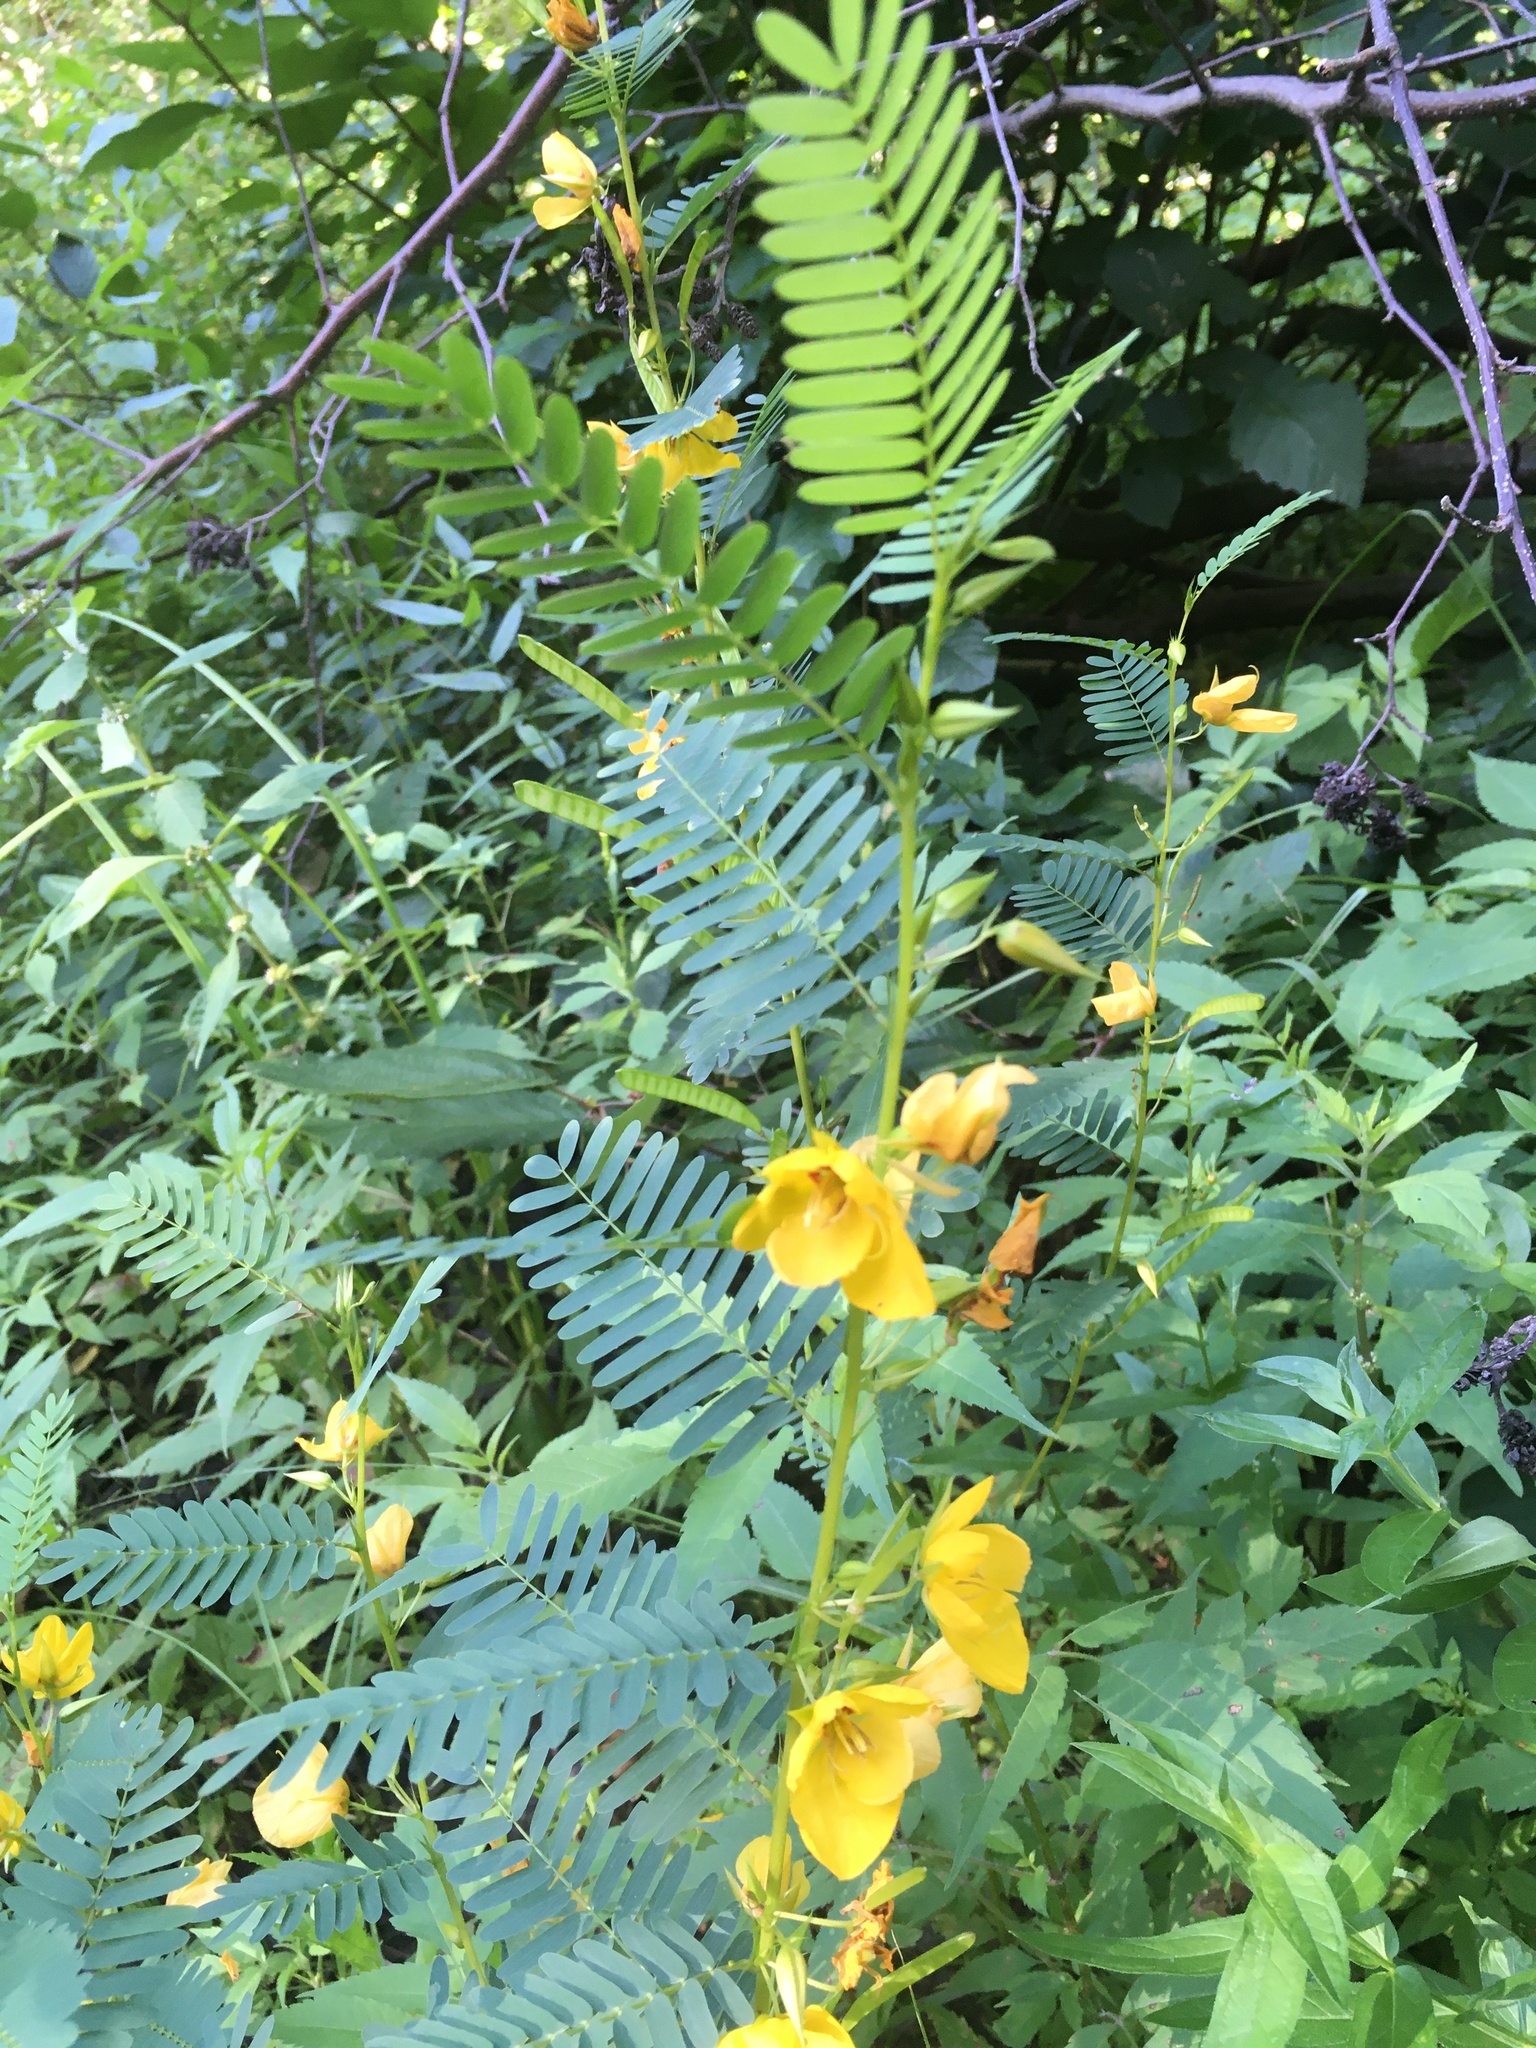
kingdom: Plantae
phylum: Tracheophyta
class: Magnoliopsida
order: Fabales
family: Fabaceae
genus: Chamaecrista
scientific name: Chamaecrista fasciculata
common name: Golden cassia
